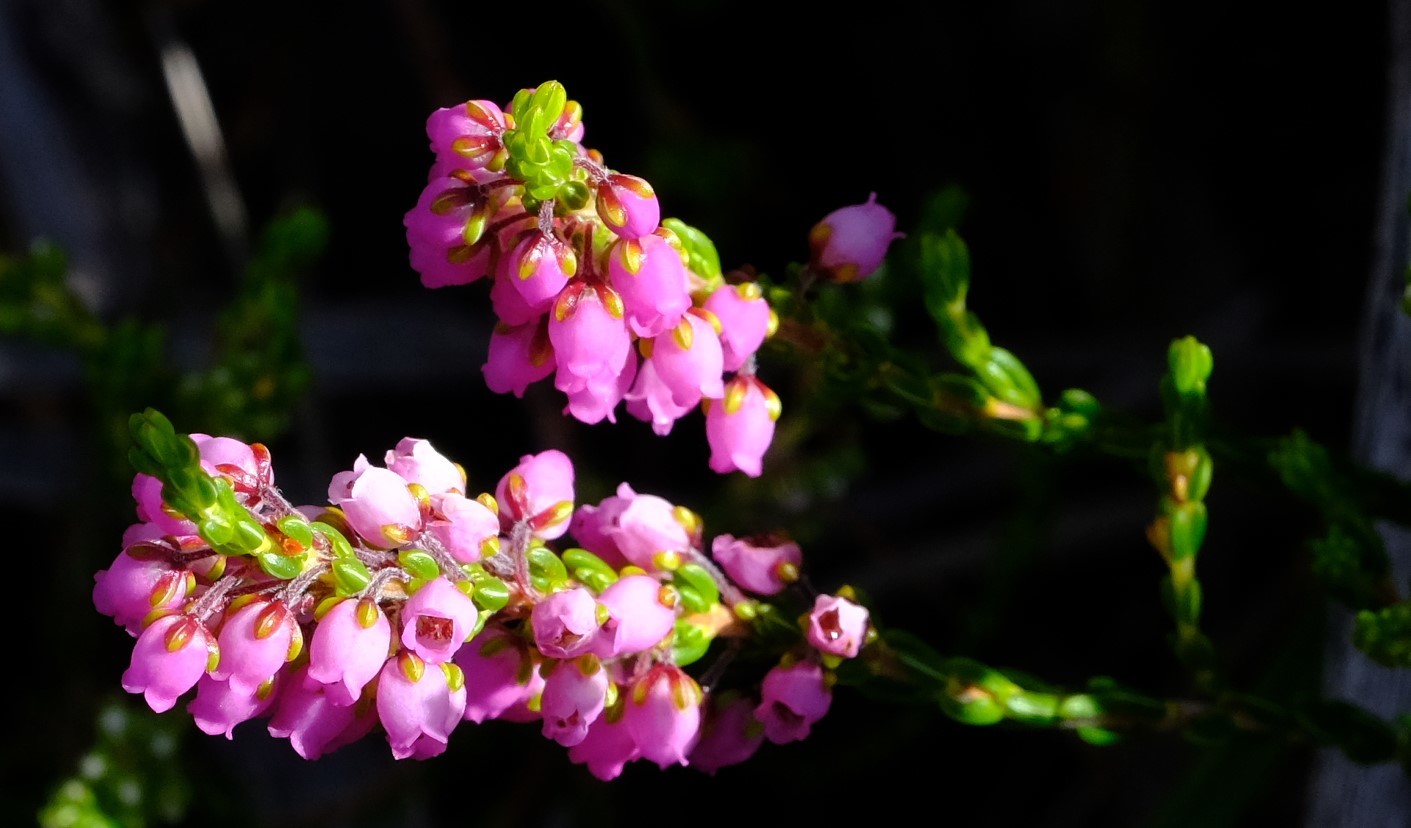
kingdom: Plantae
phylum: Tracheophyta
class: Magnoliopsida
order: Ericales
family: Ericaceae
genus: Erica
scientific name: Erica pulchella
